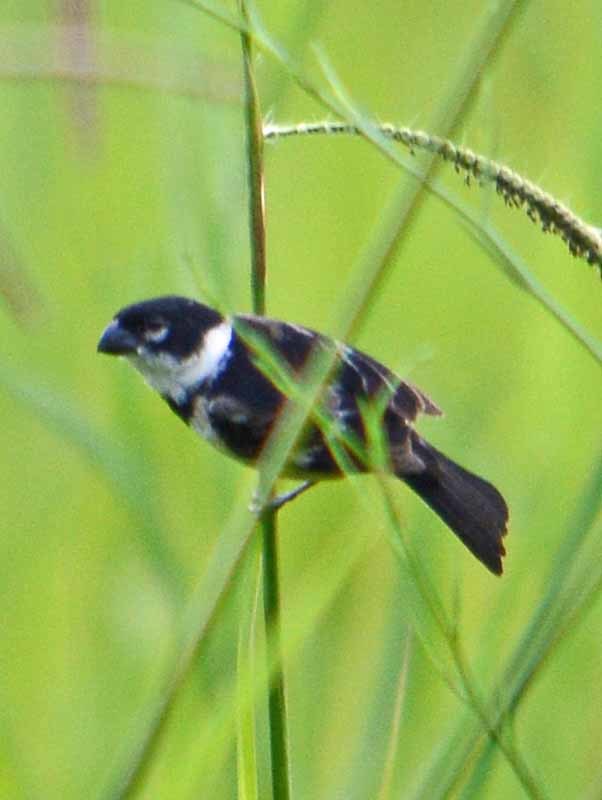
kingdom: Animalia
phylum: Chordata
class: Aves
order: Passeriformes
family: Thraupidae
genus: Sporophila
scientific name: Sporophila morelleti
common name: Morelet's seedeater
